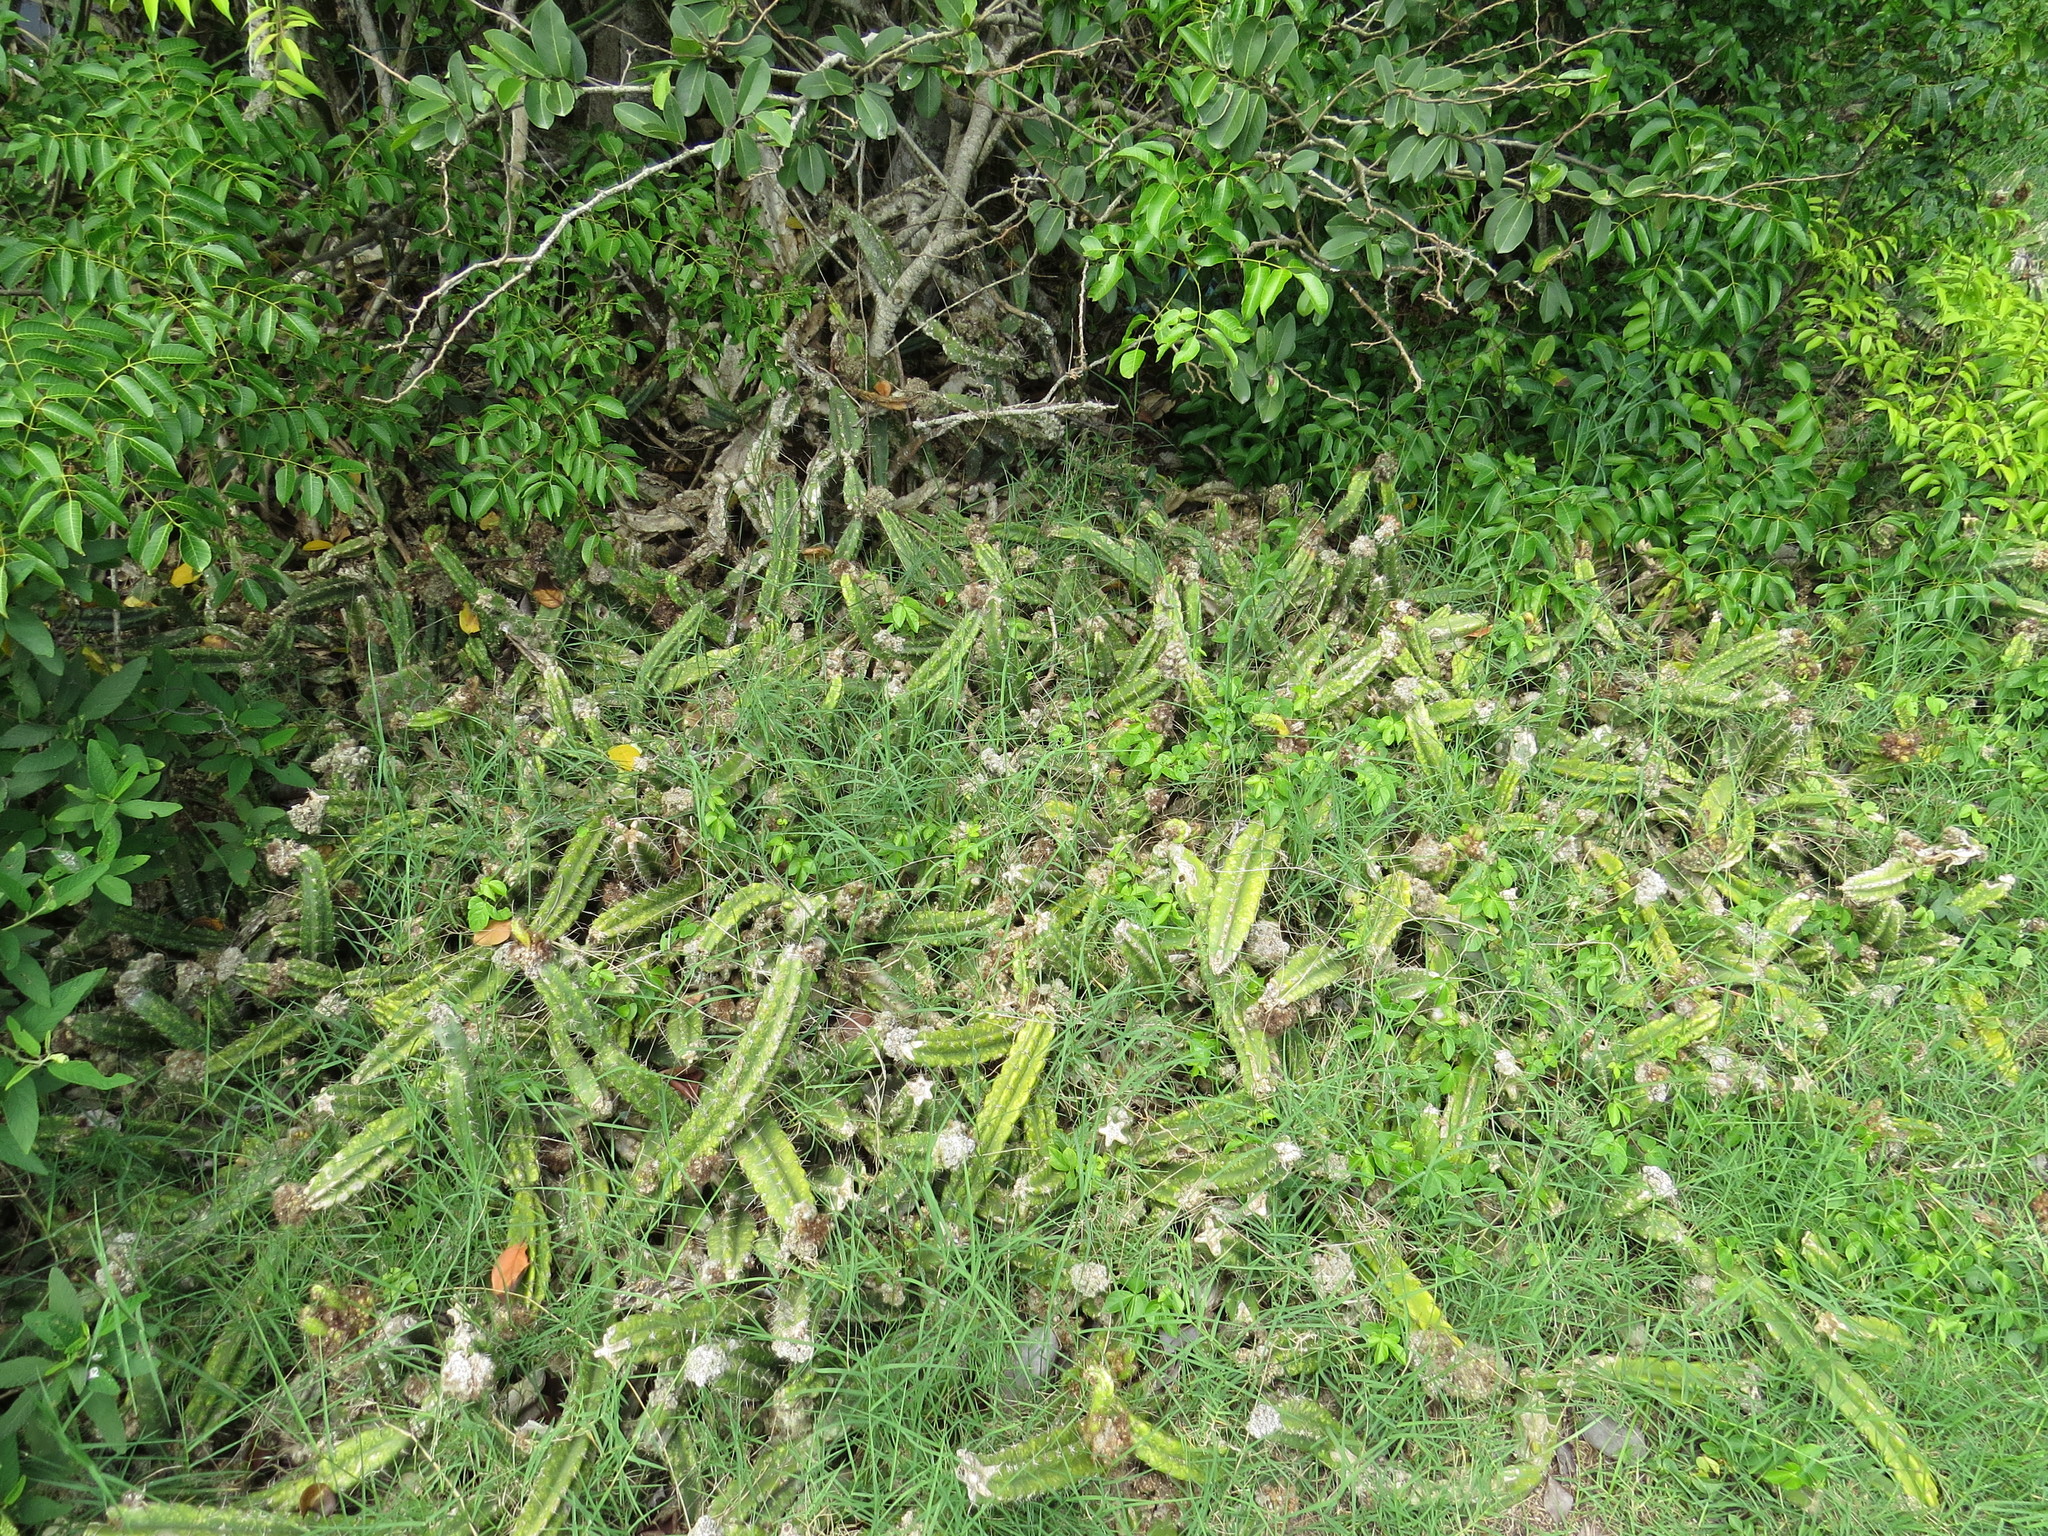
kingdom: Plantae
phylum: Tracheophyta
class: Magnoliopsida
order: Caryophyllales
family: Cactaceae
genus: Cereus
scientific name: Cereus fernambucensis
